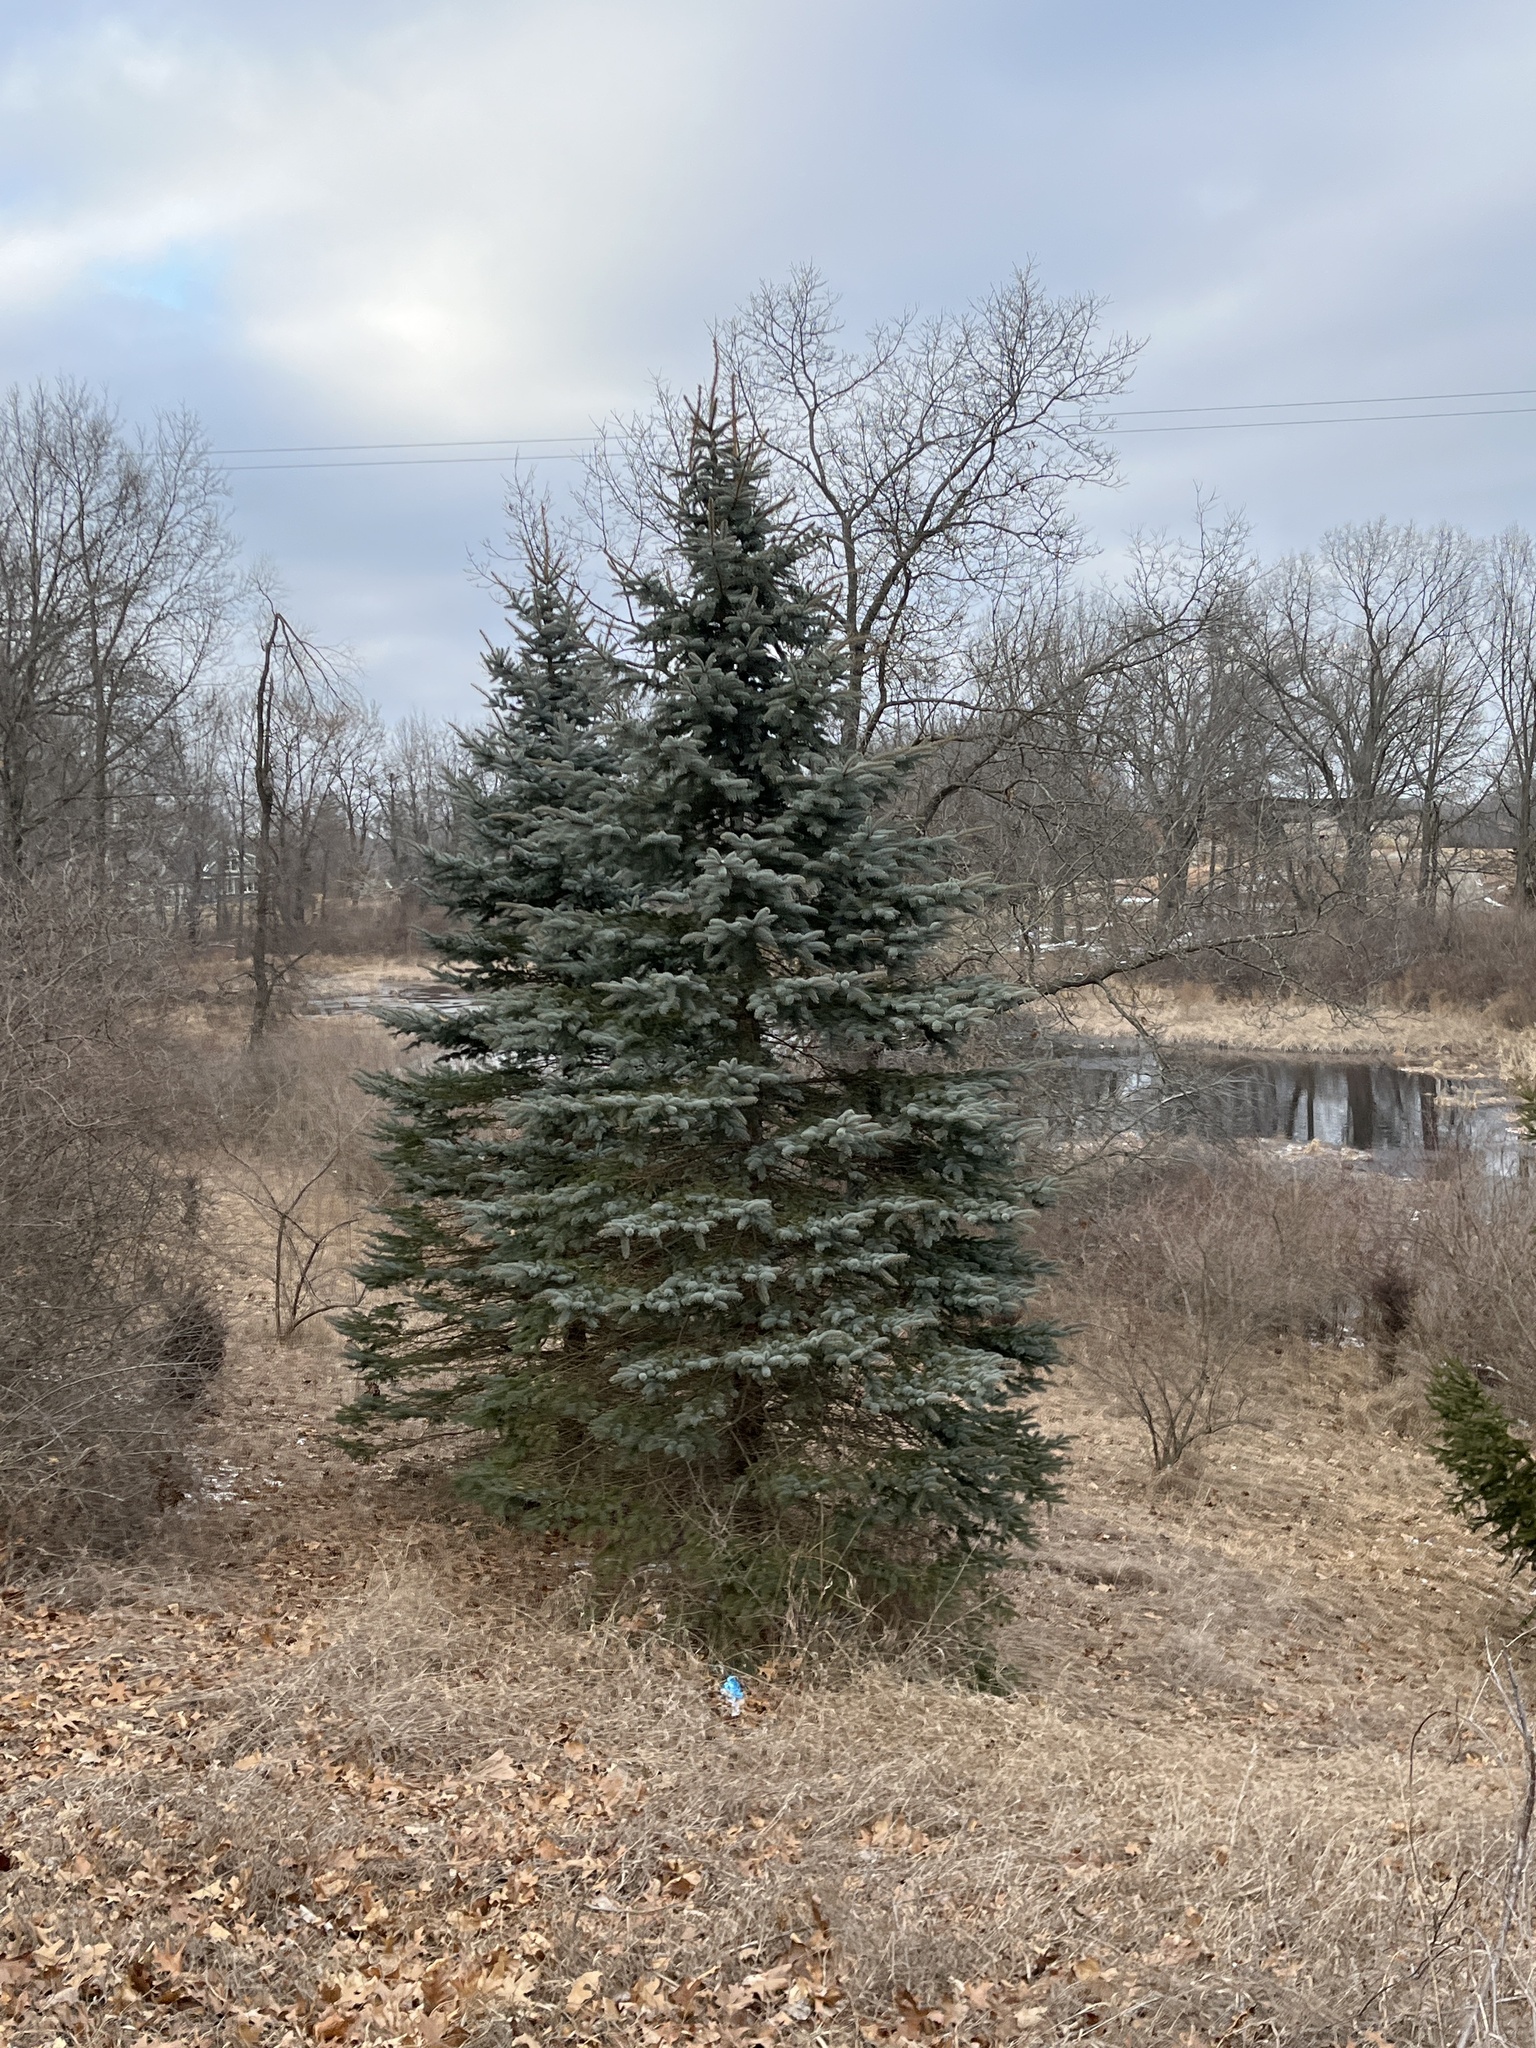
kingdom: Plantae
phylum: Tracheophyta
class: Pinopsida
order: Pinales
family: Pinaceae
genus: Picea
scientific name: Picea pungens
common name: Colorado spruce
